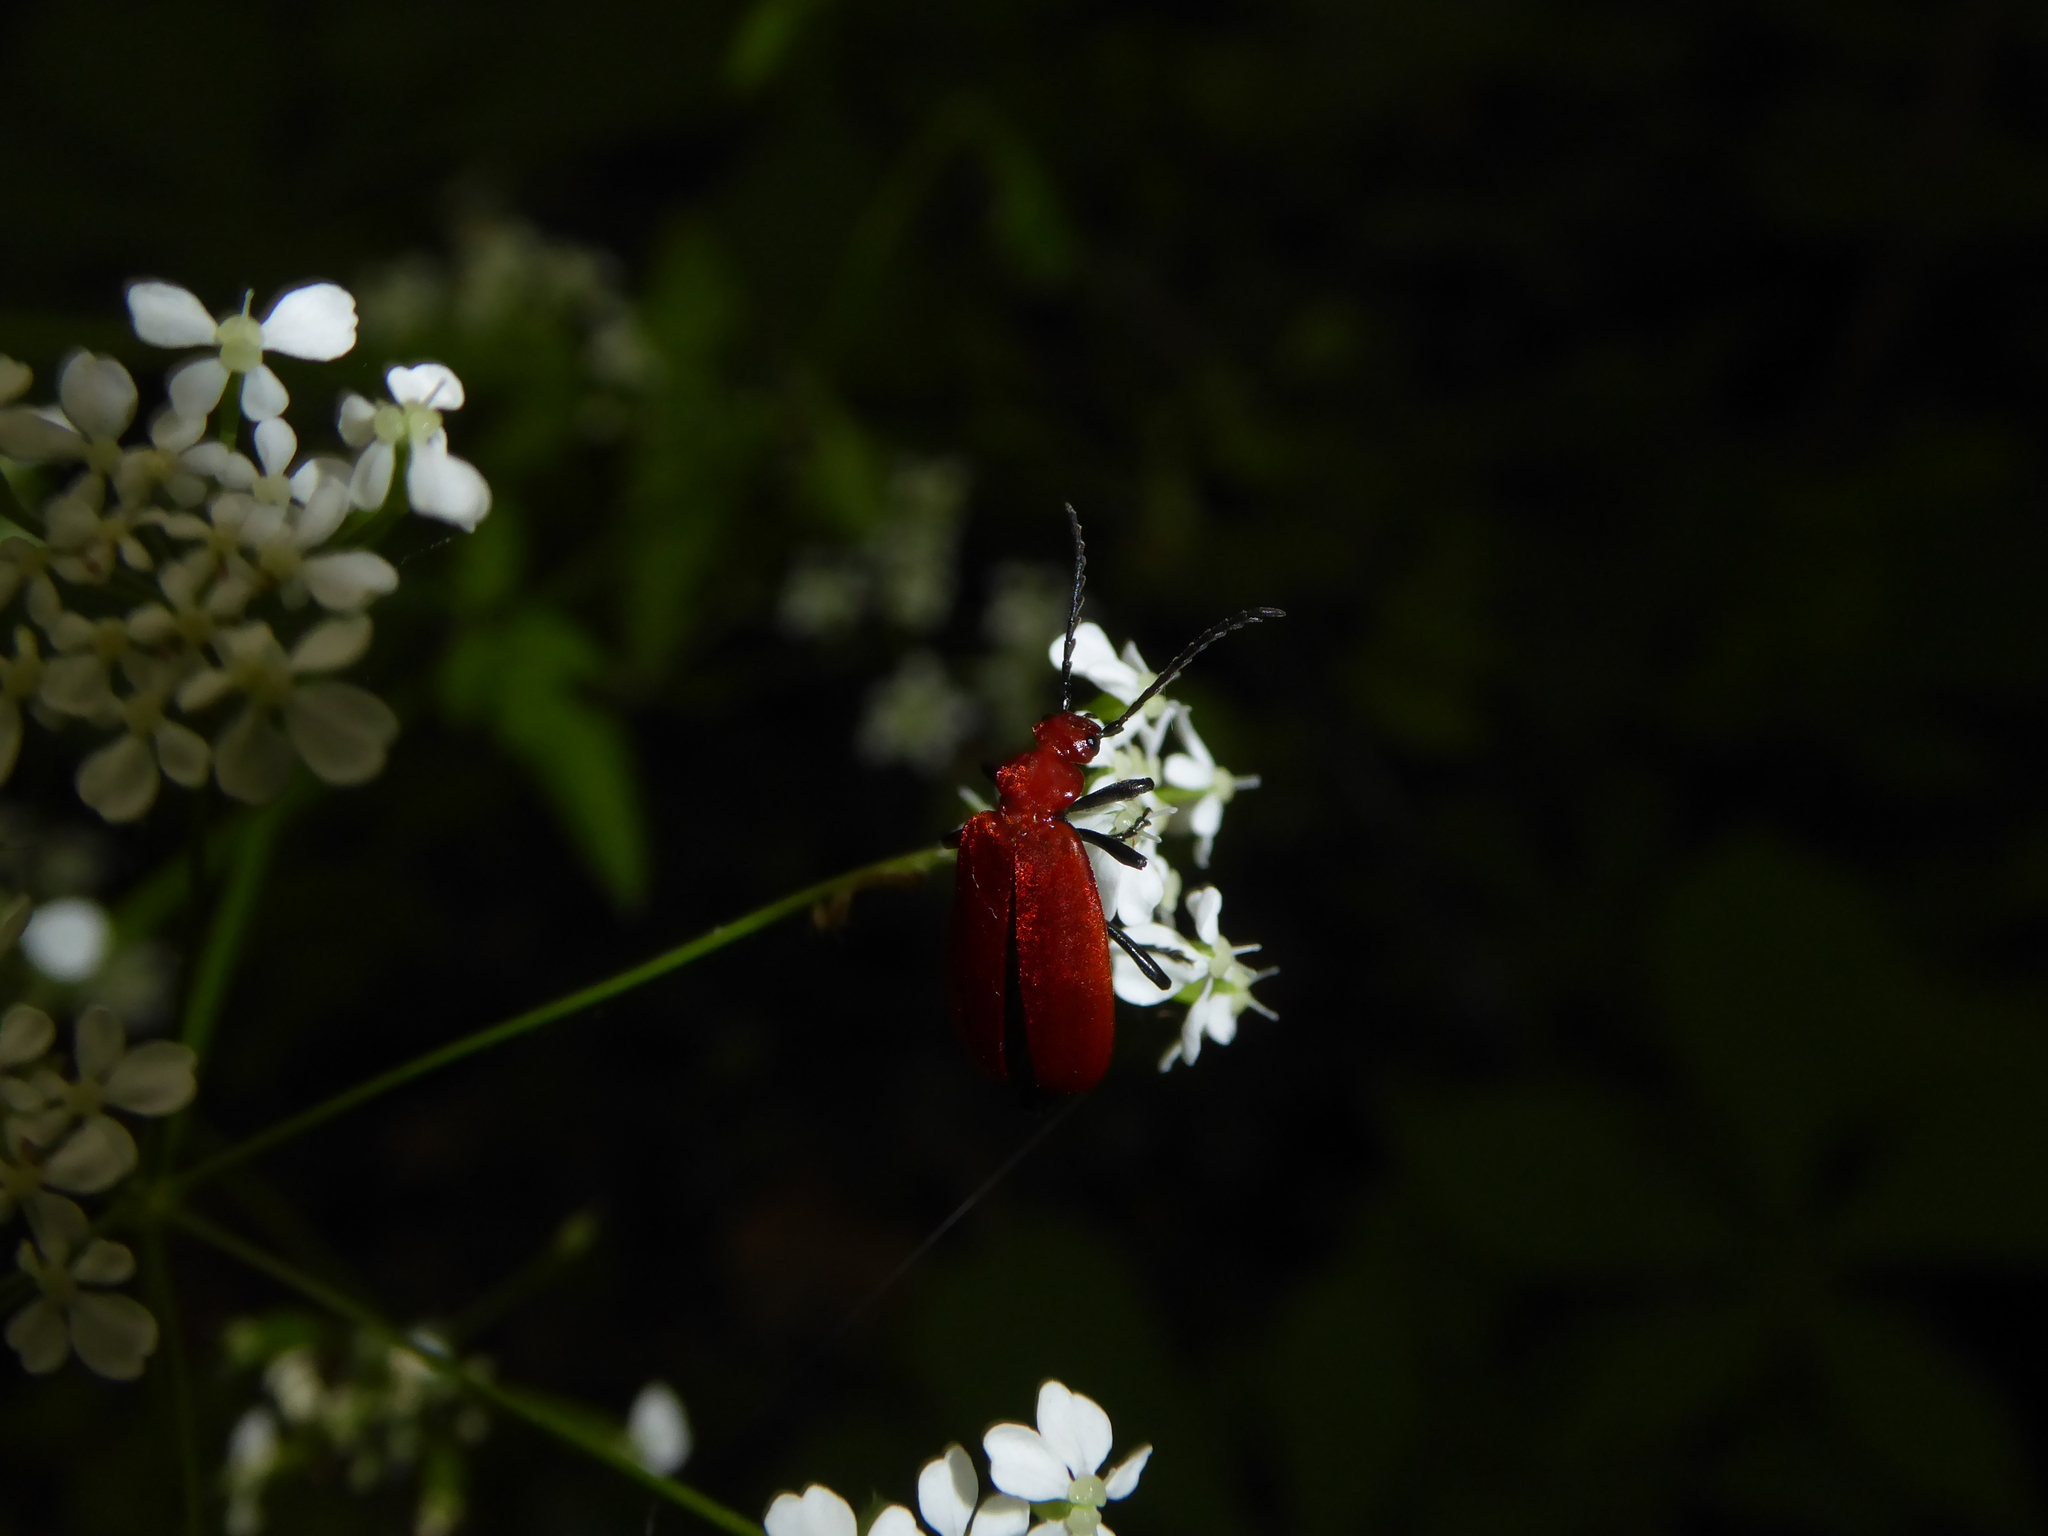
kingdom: Animalia
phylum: Arthropoda
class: Insecta
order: Coleoptera
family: Pyrochroidae
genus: Pyrochroa
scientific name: Pyrochroa serraticornis
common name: Red-headed cardinal beetle
